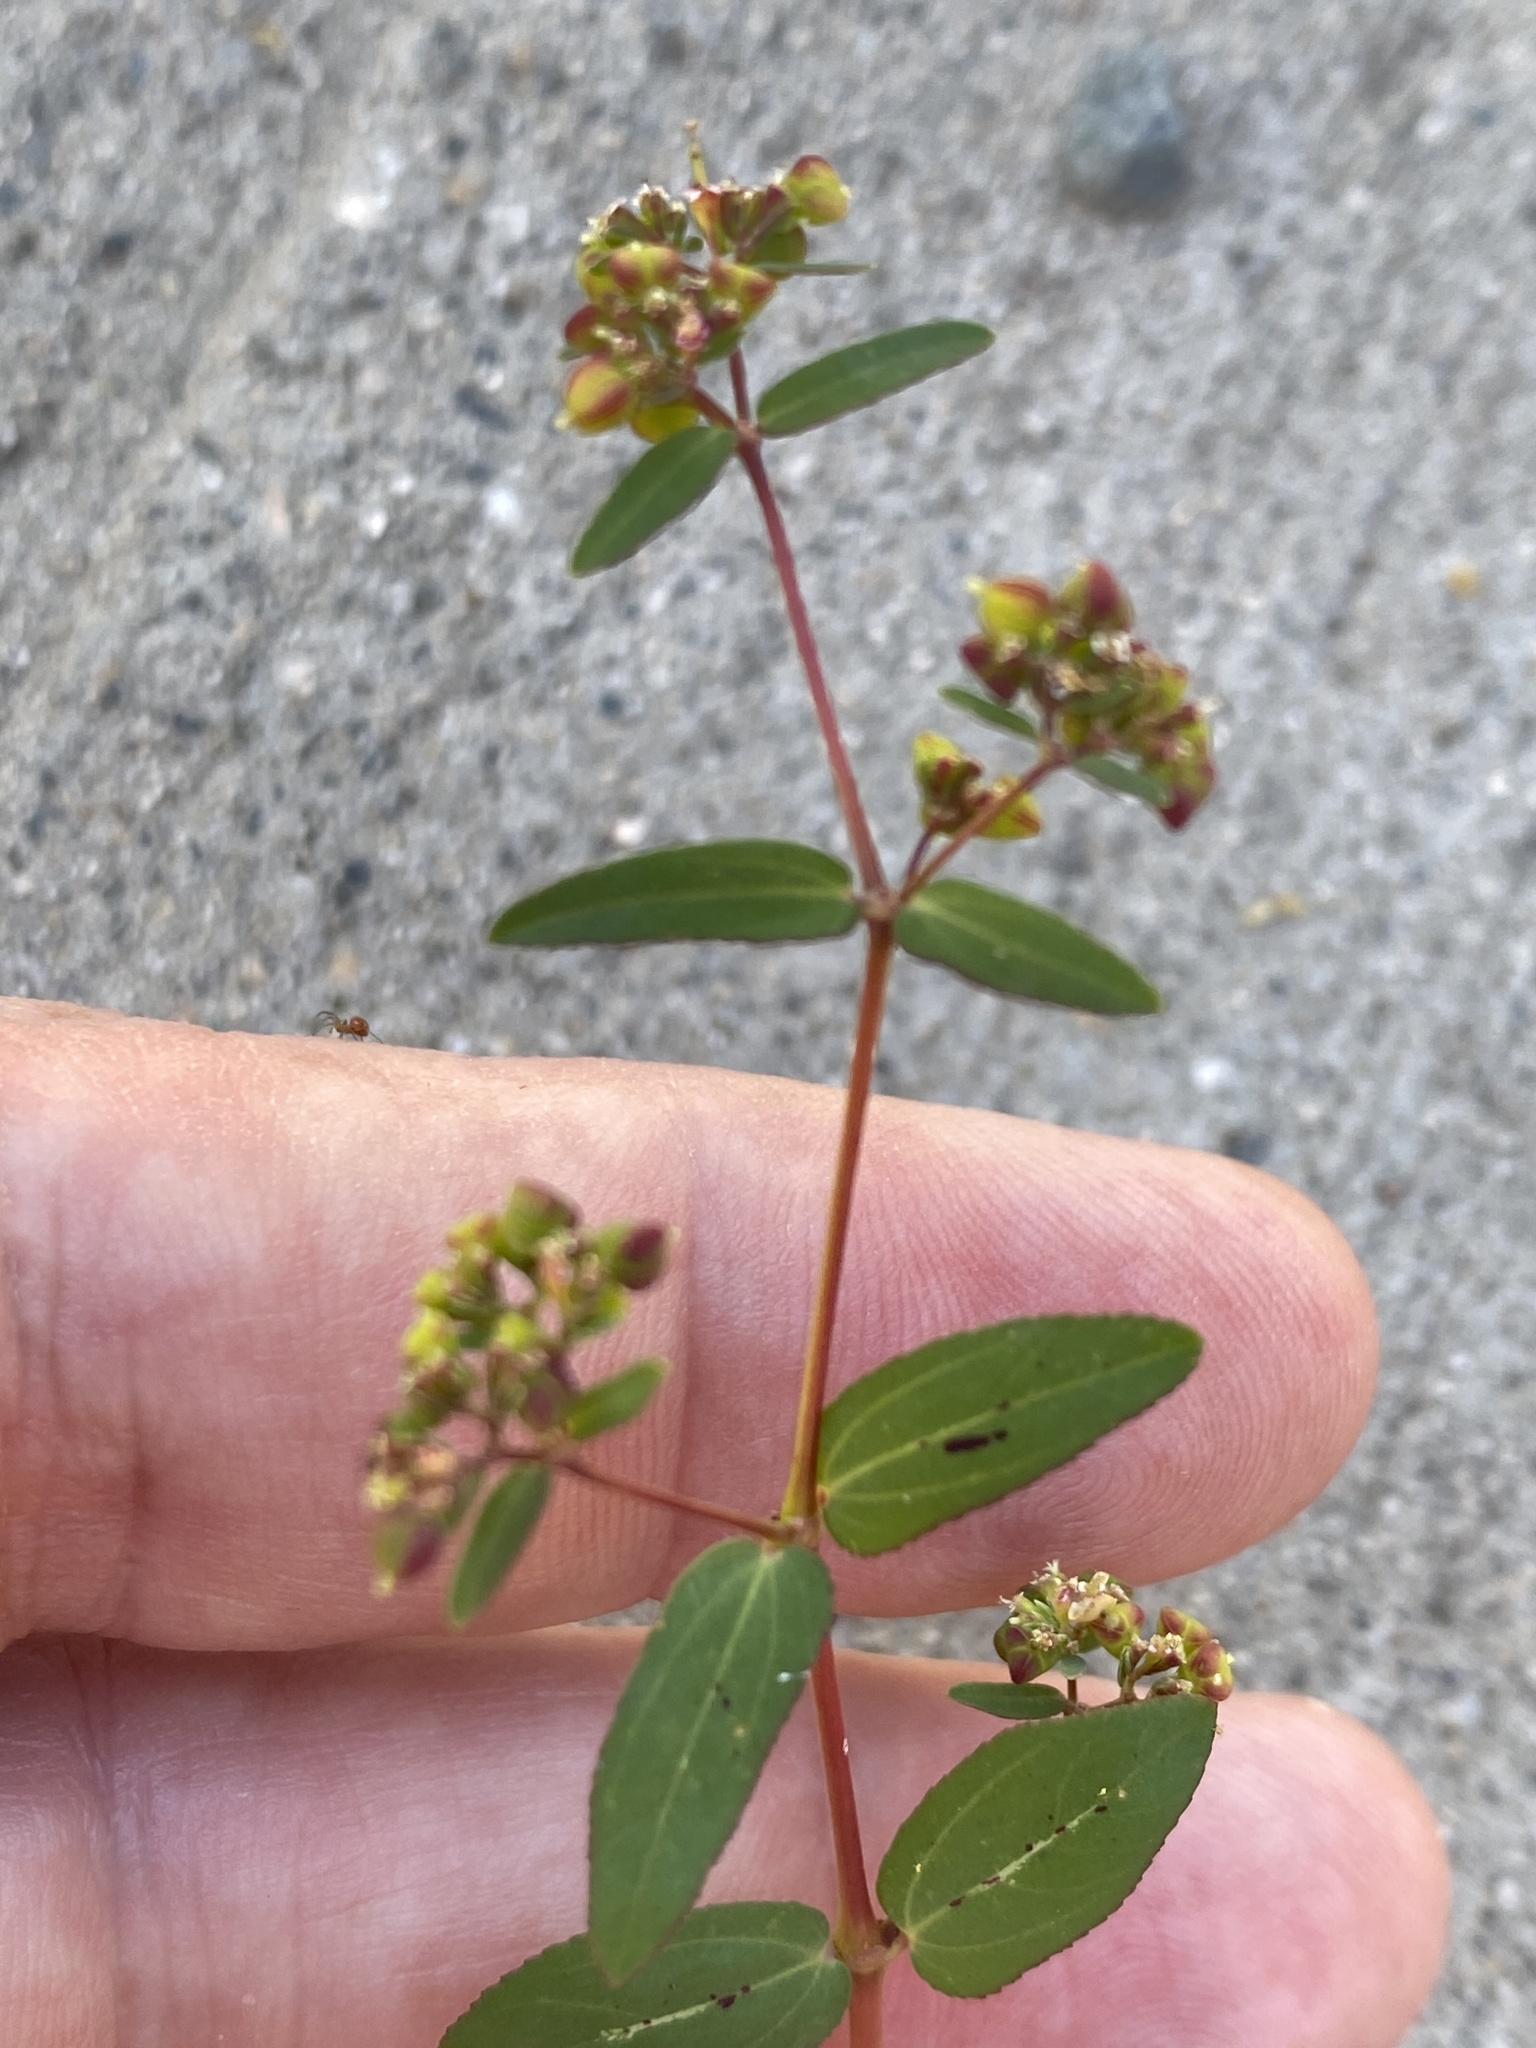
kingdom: Plantae
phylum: Tracheophyta
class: Magnoliopsida
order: Malpighiales
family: Euphorbiaceae
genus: Euphorbia
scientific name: Euphorbia nutans
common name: Eyebane
